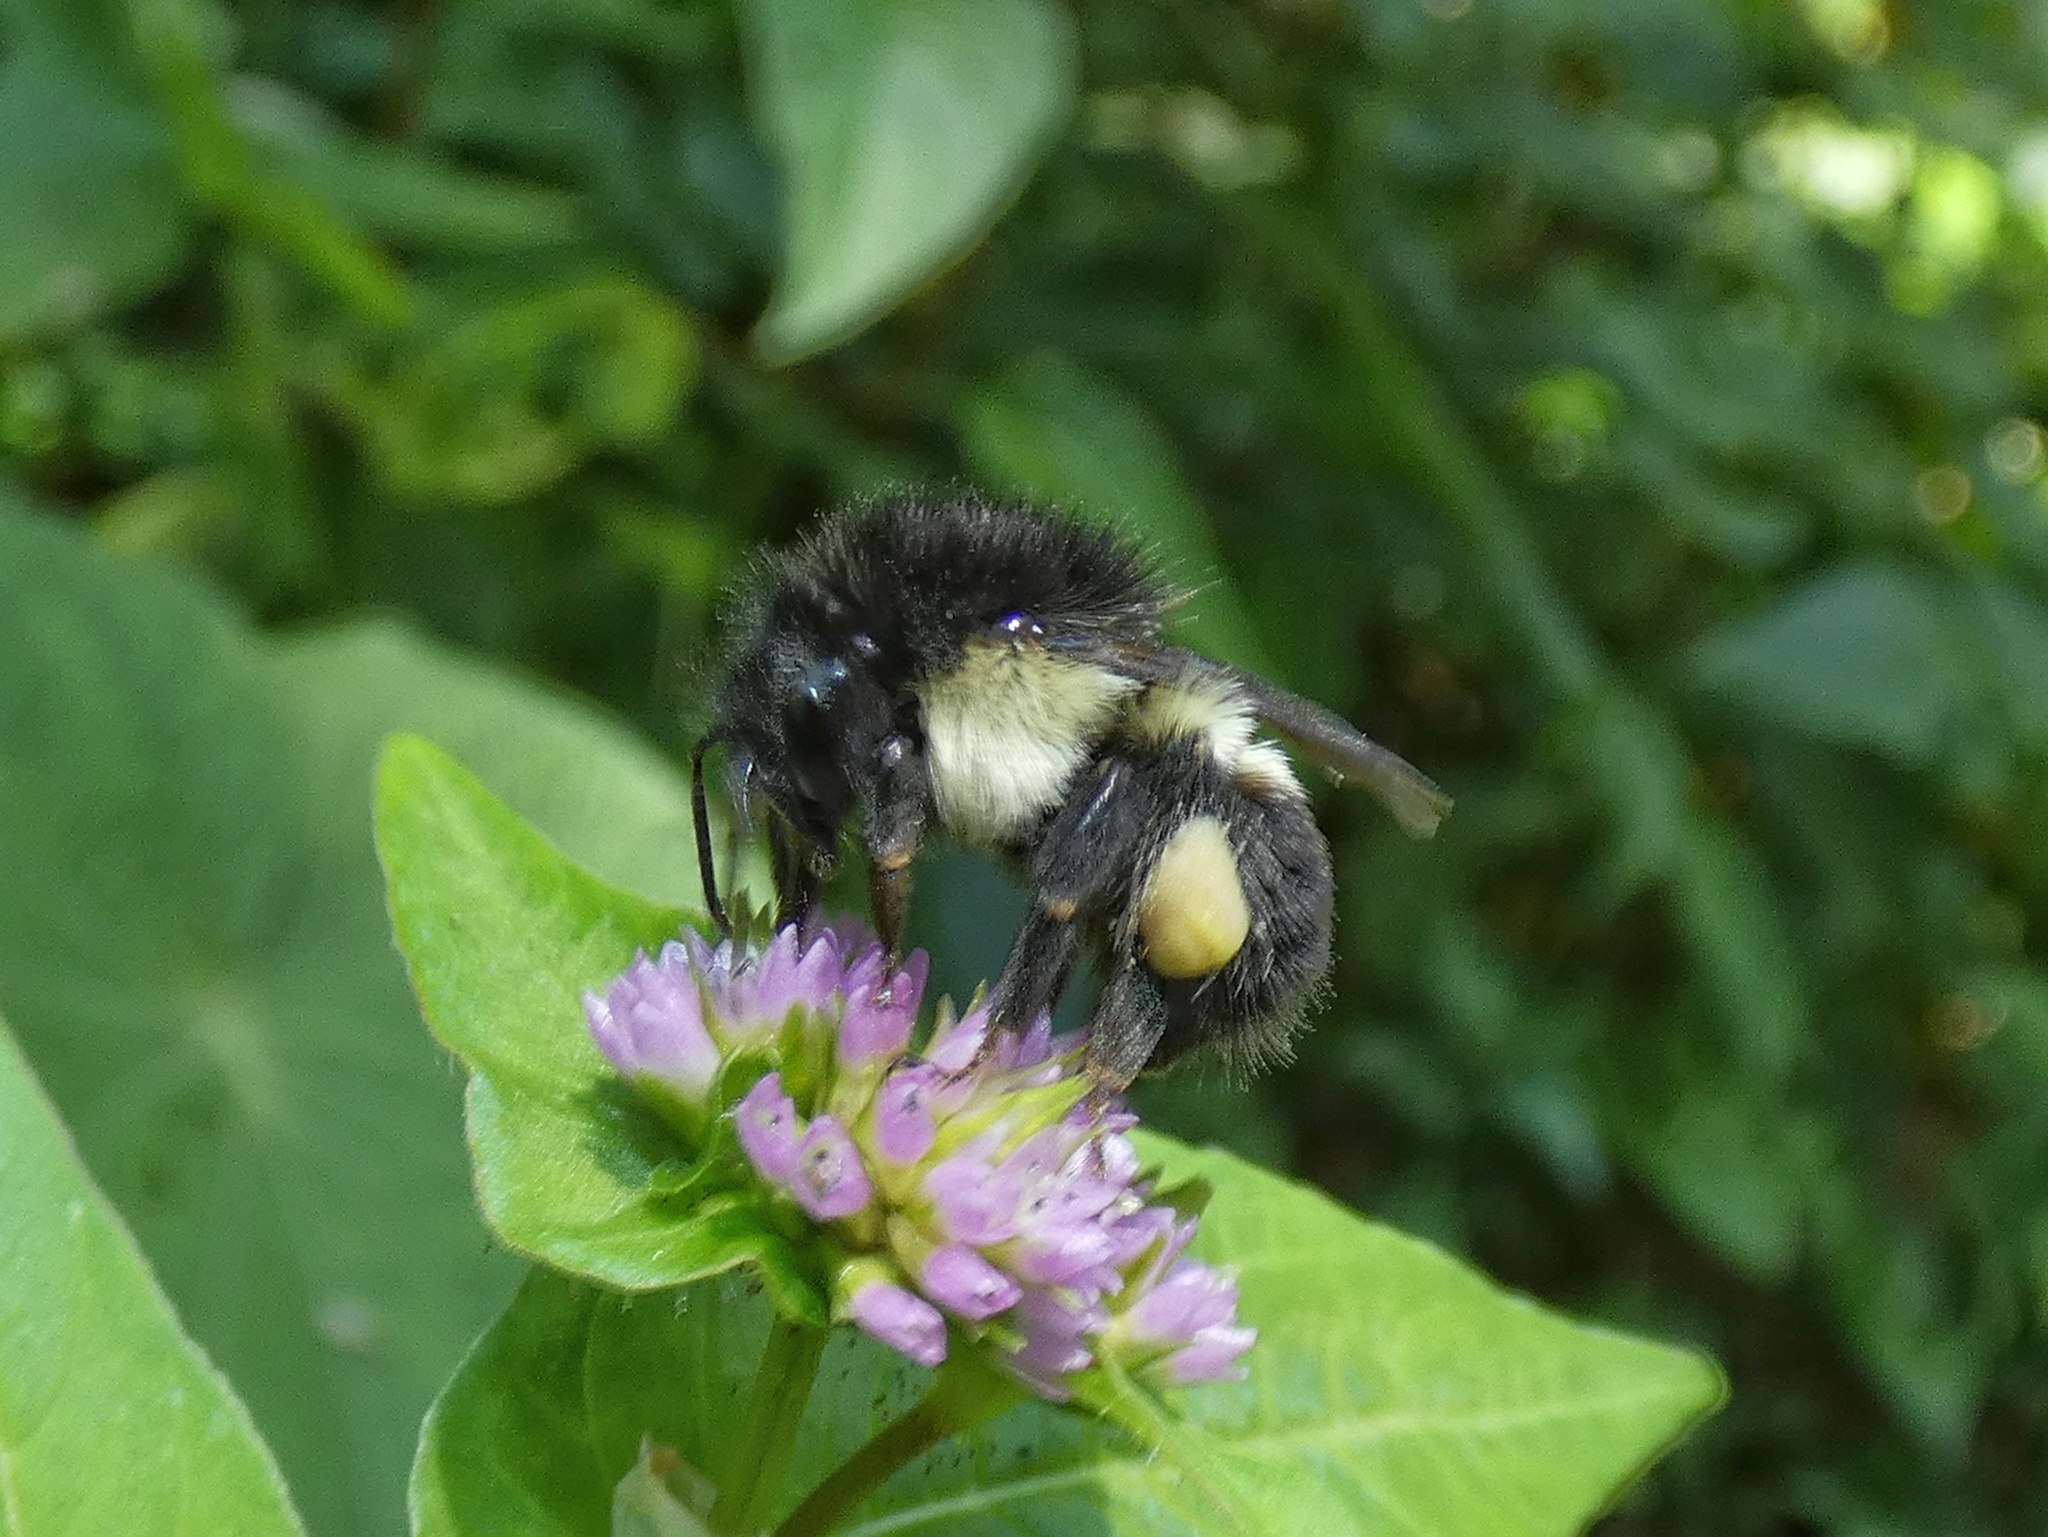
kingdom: Animalia
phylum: Arthropoda
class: Insecta
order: Hymenoptera
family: Apidae
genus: Bombus
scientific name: Bombus ephippiatus
